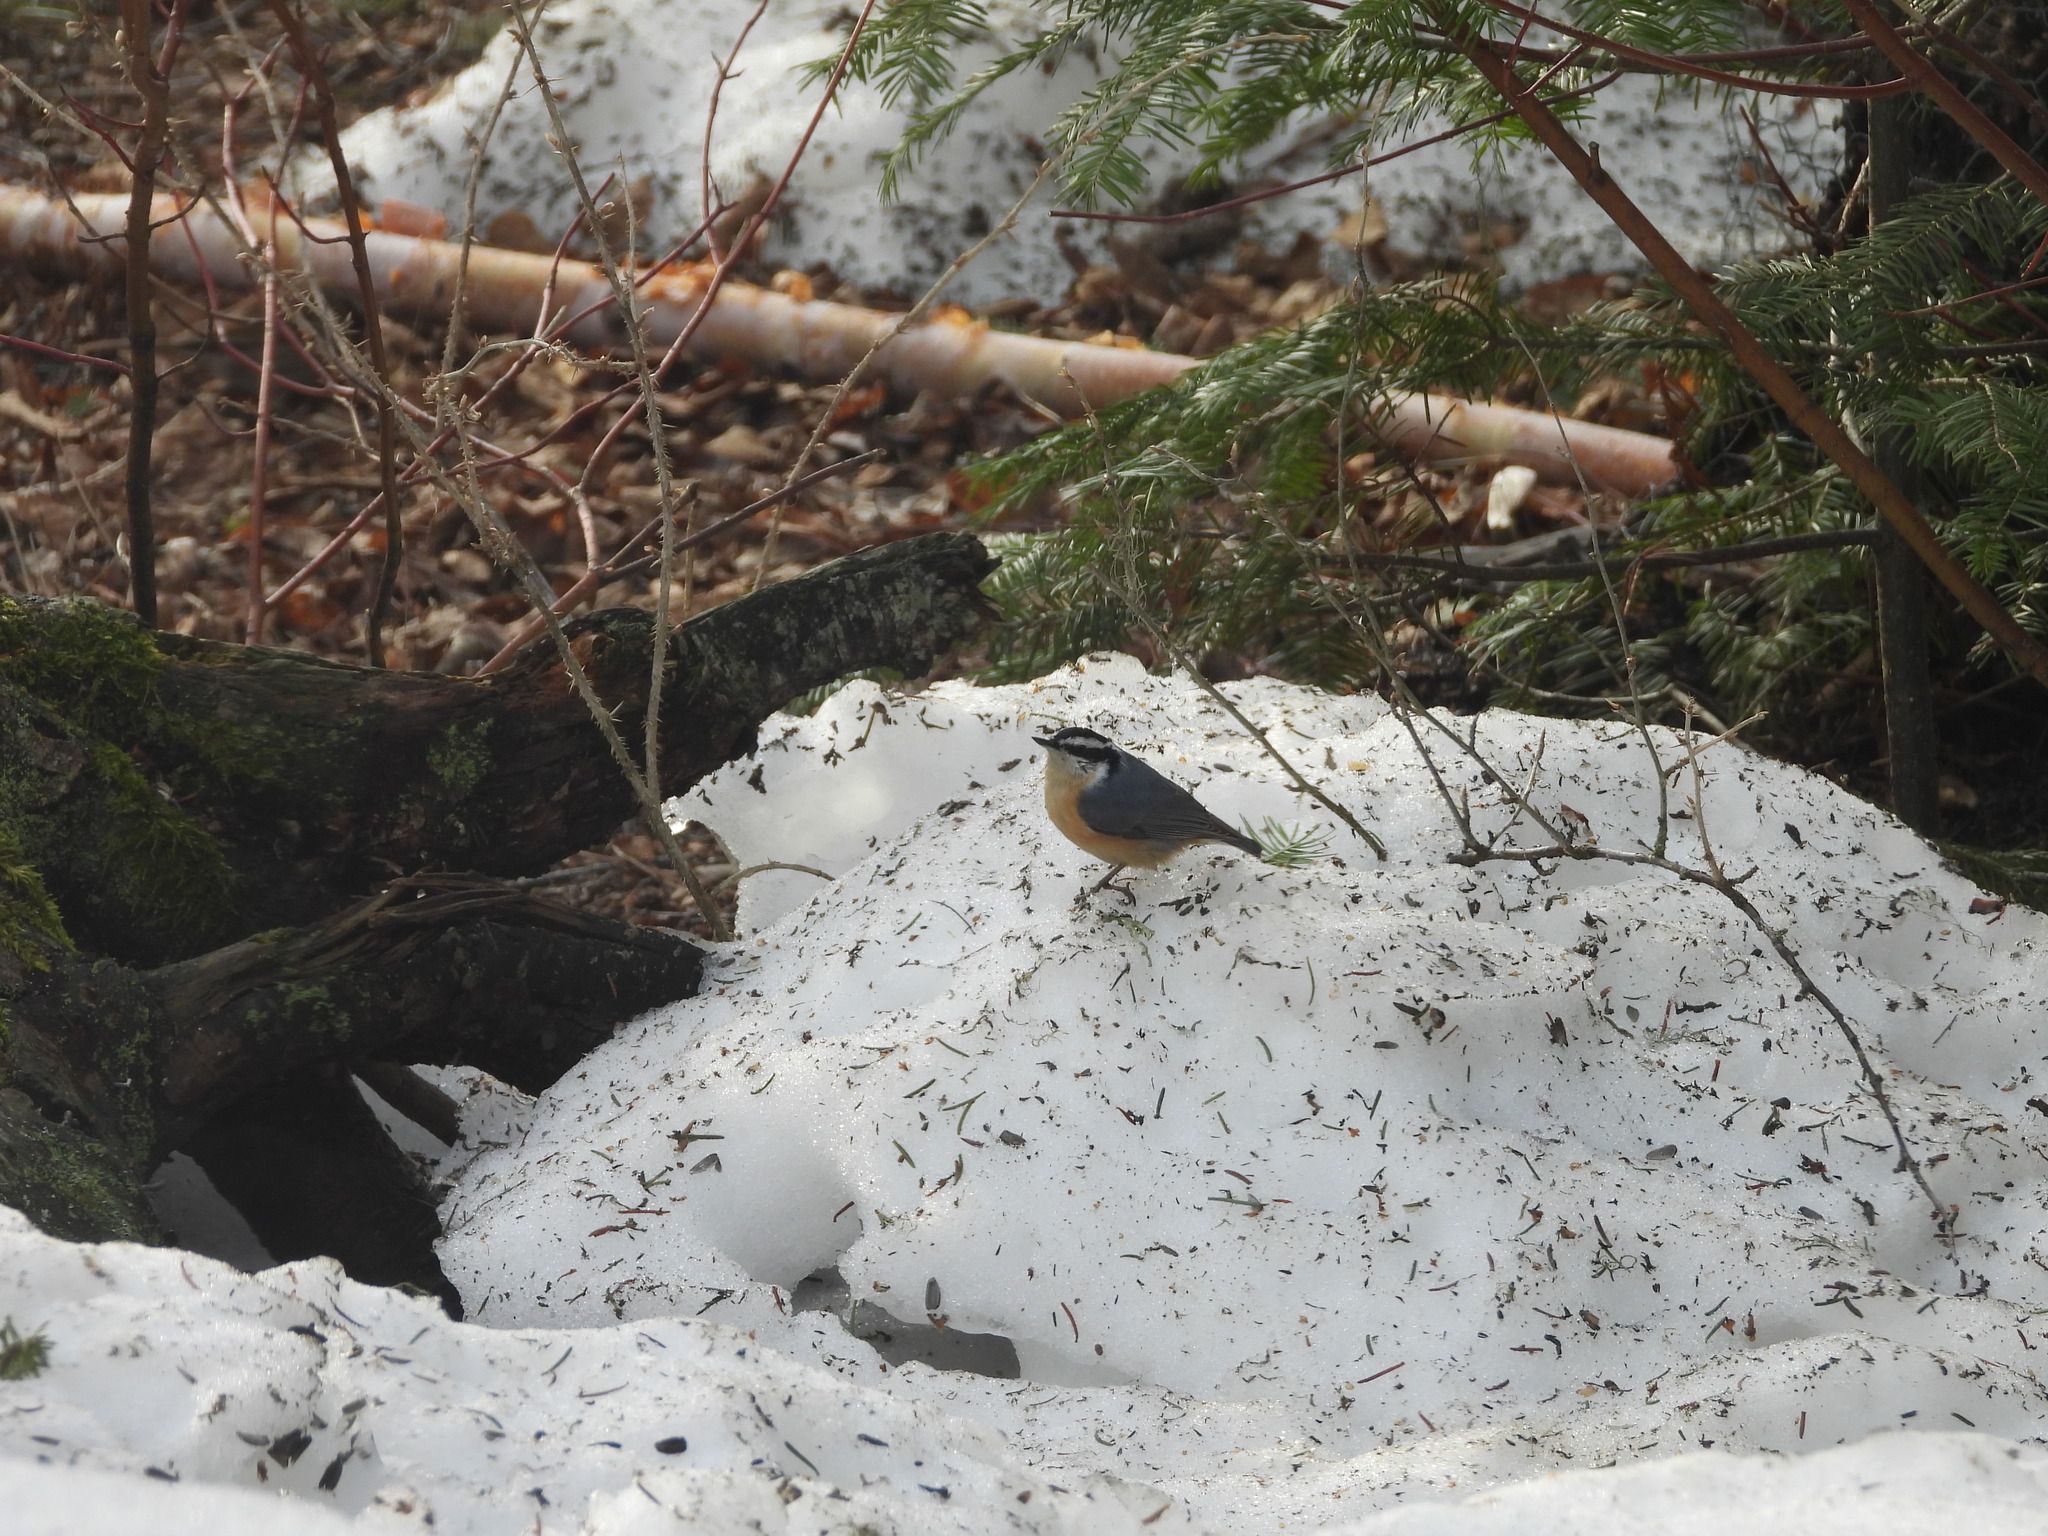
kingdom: Animalia
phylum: Chordata
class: Aves
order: Passeriformes
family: Sittidae
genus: Sitta
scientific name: Sitta canadensis
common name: Red-breasted nuthatch
